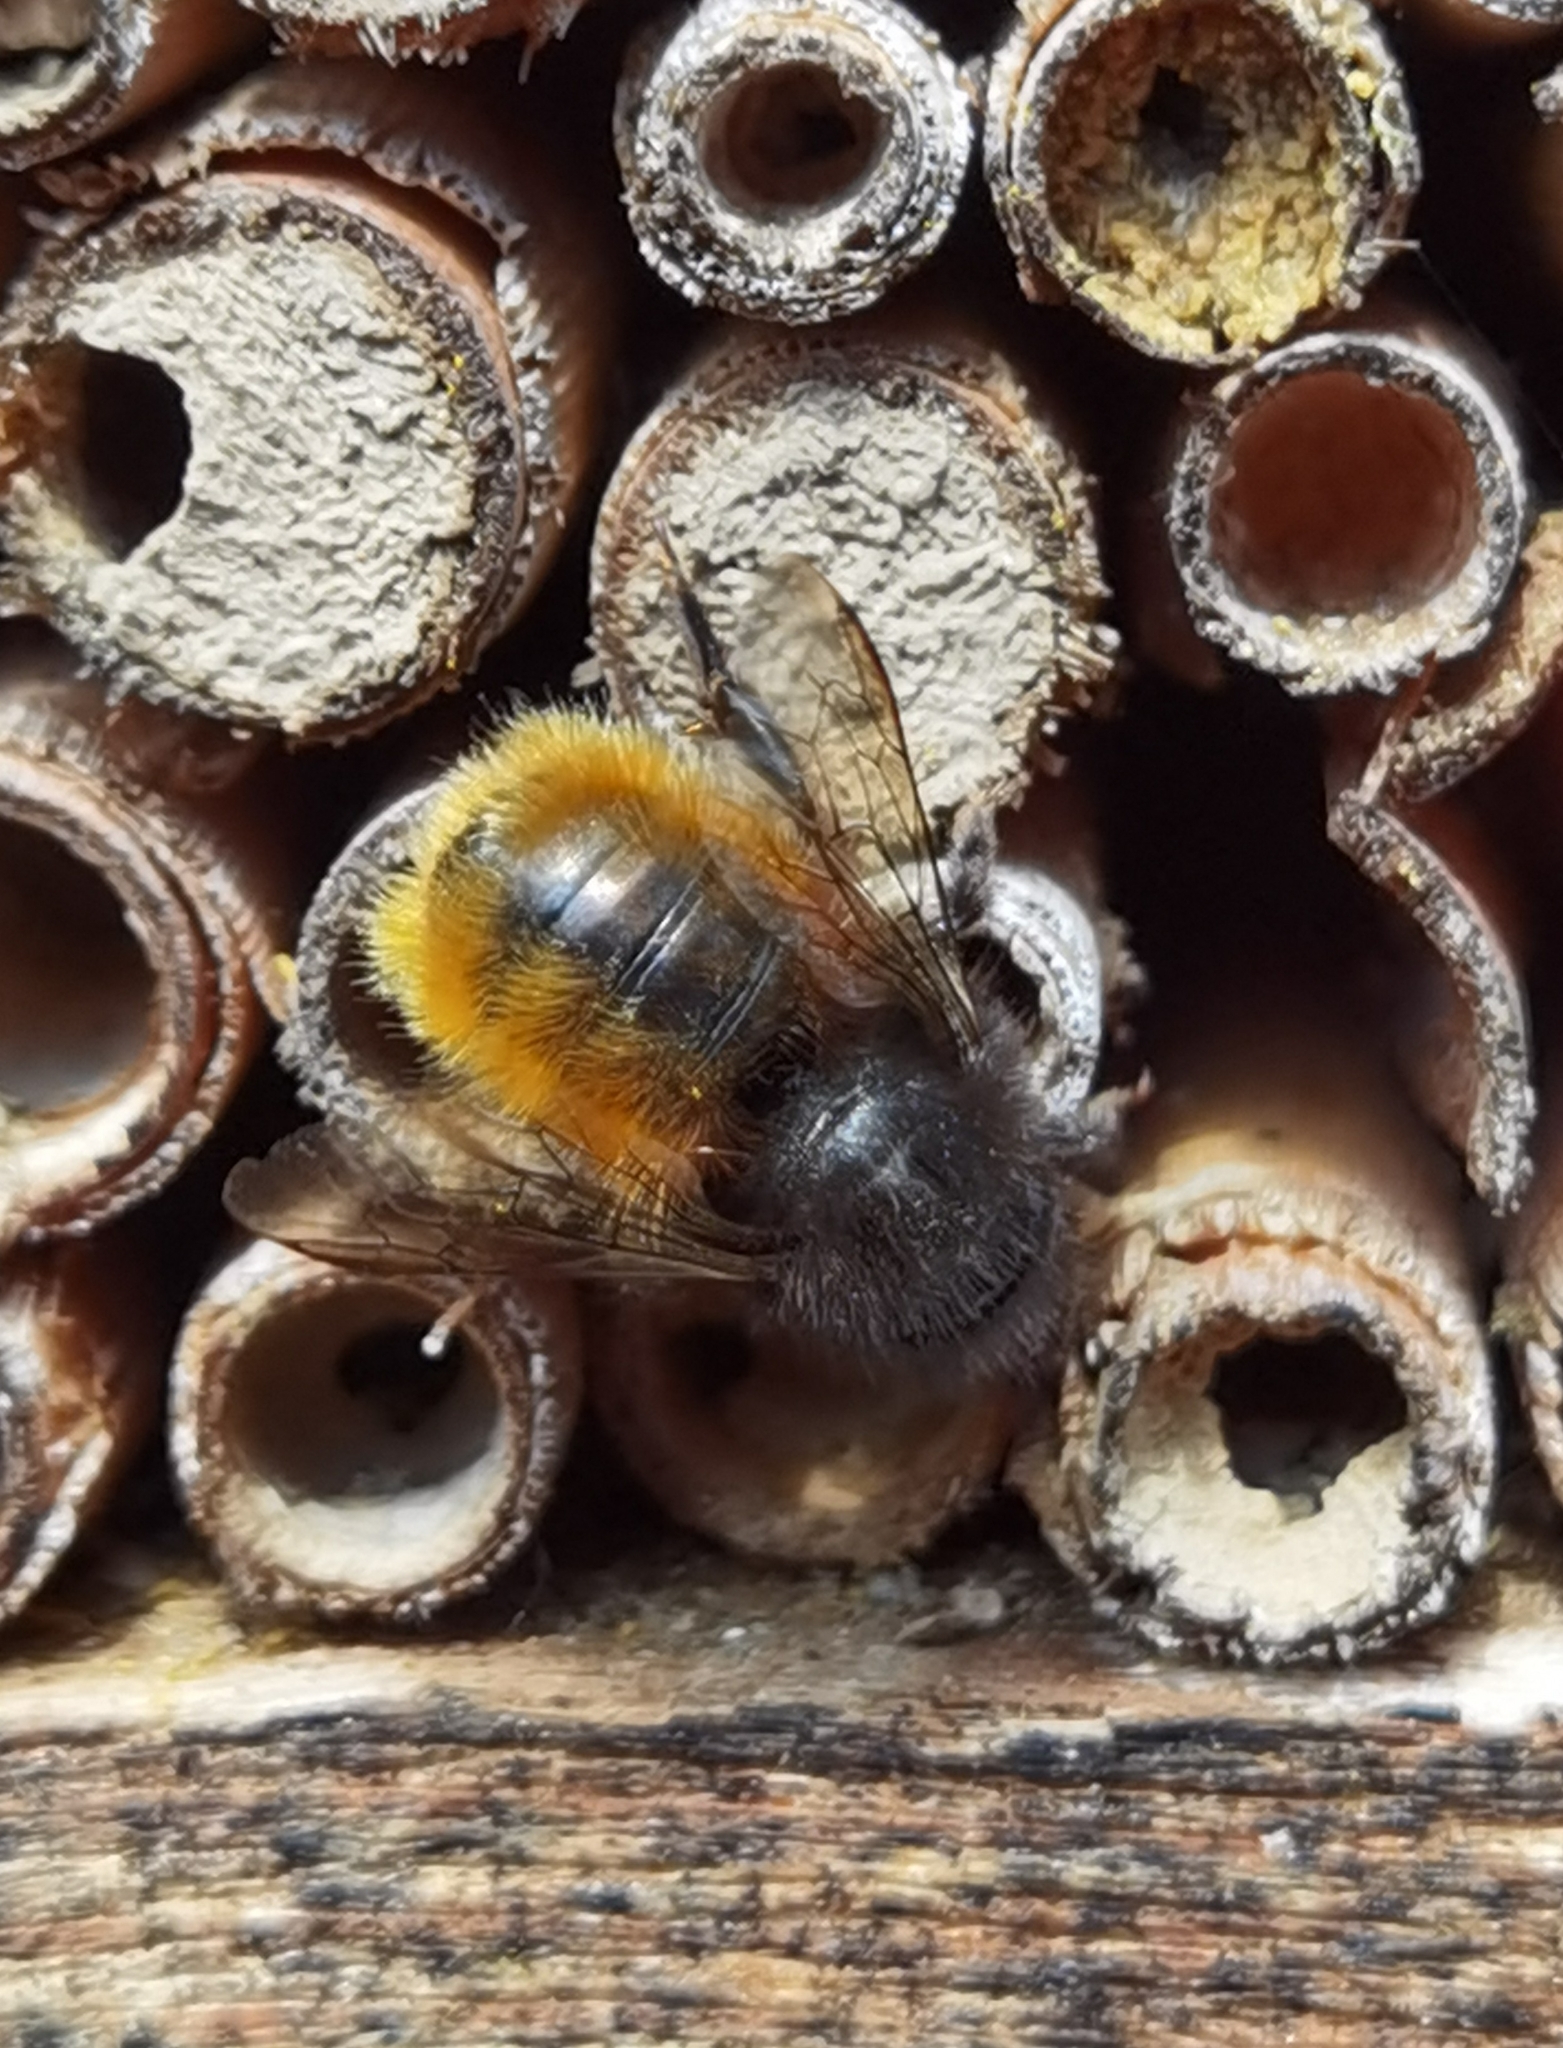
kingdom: Animalia
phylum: Arthropoda
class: Insecta
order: Hymenoptera
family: Megachilidae
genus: Osmia
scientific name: Osmia cornuta
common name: Mason bee
